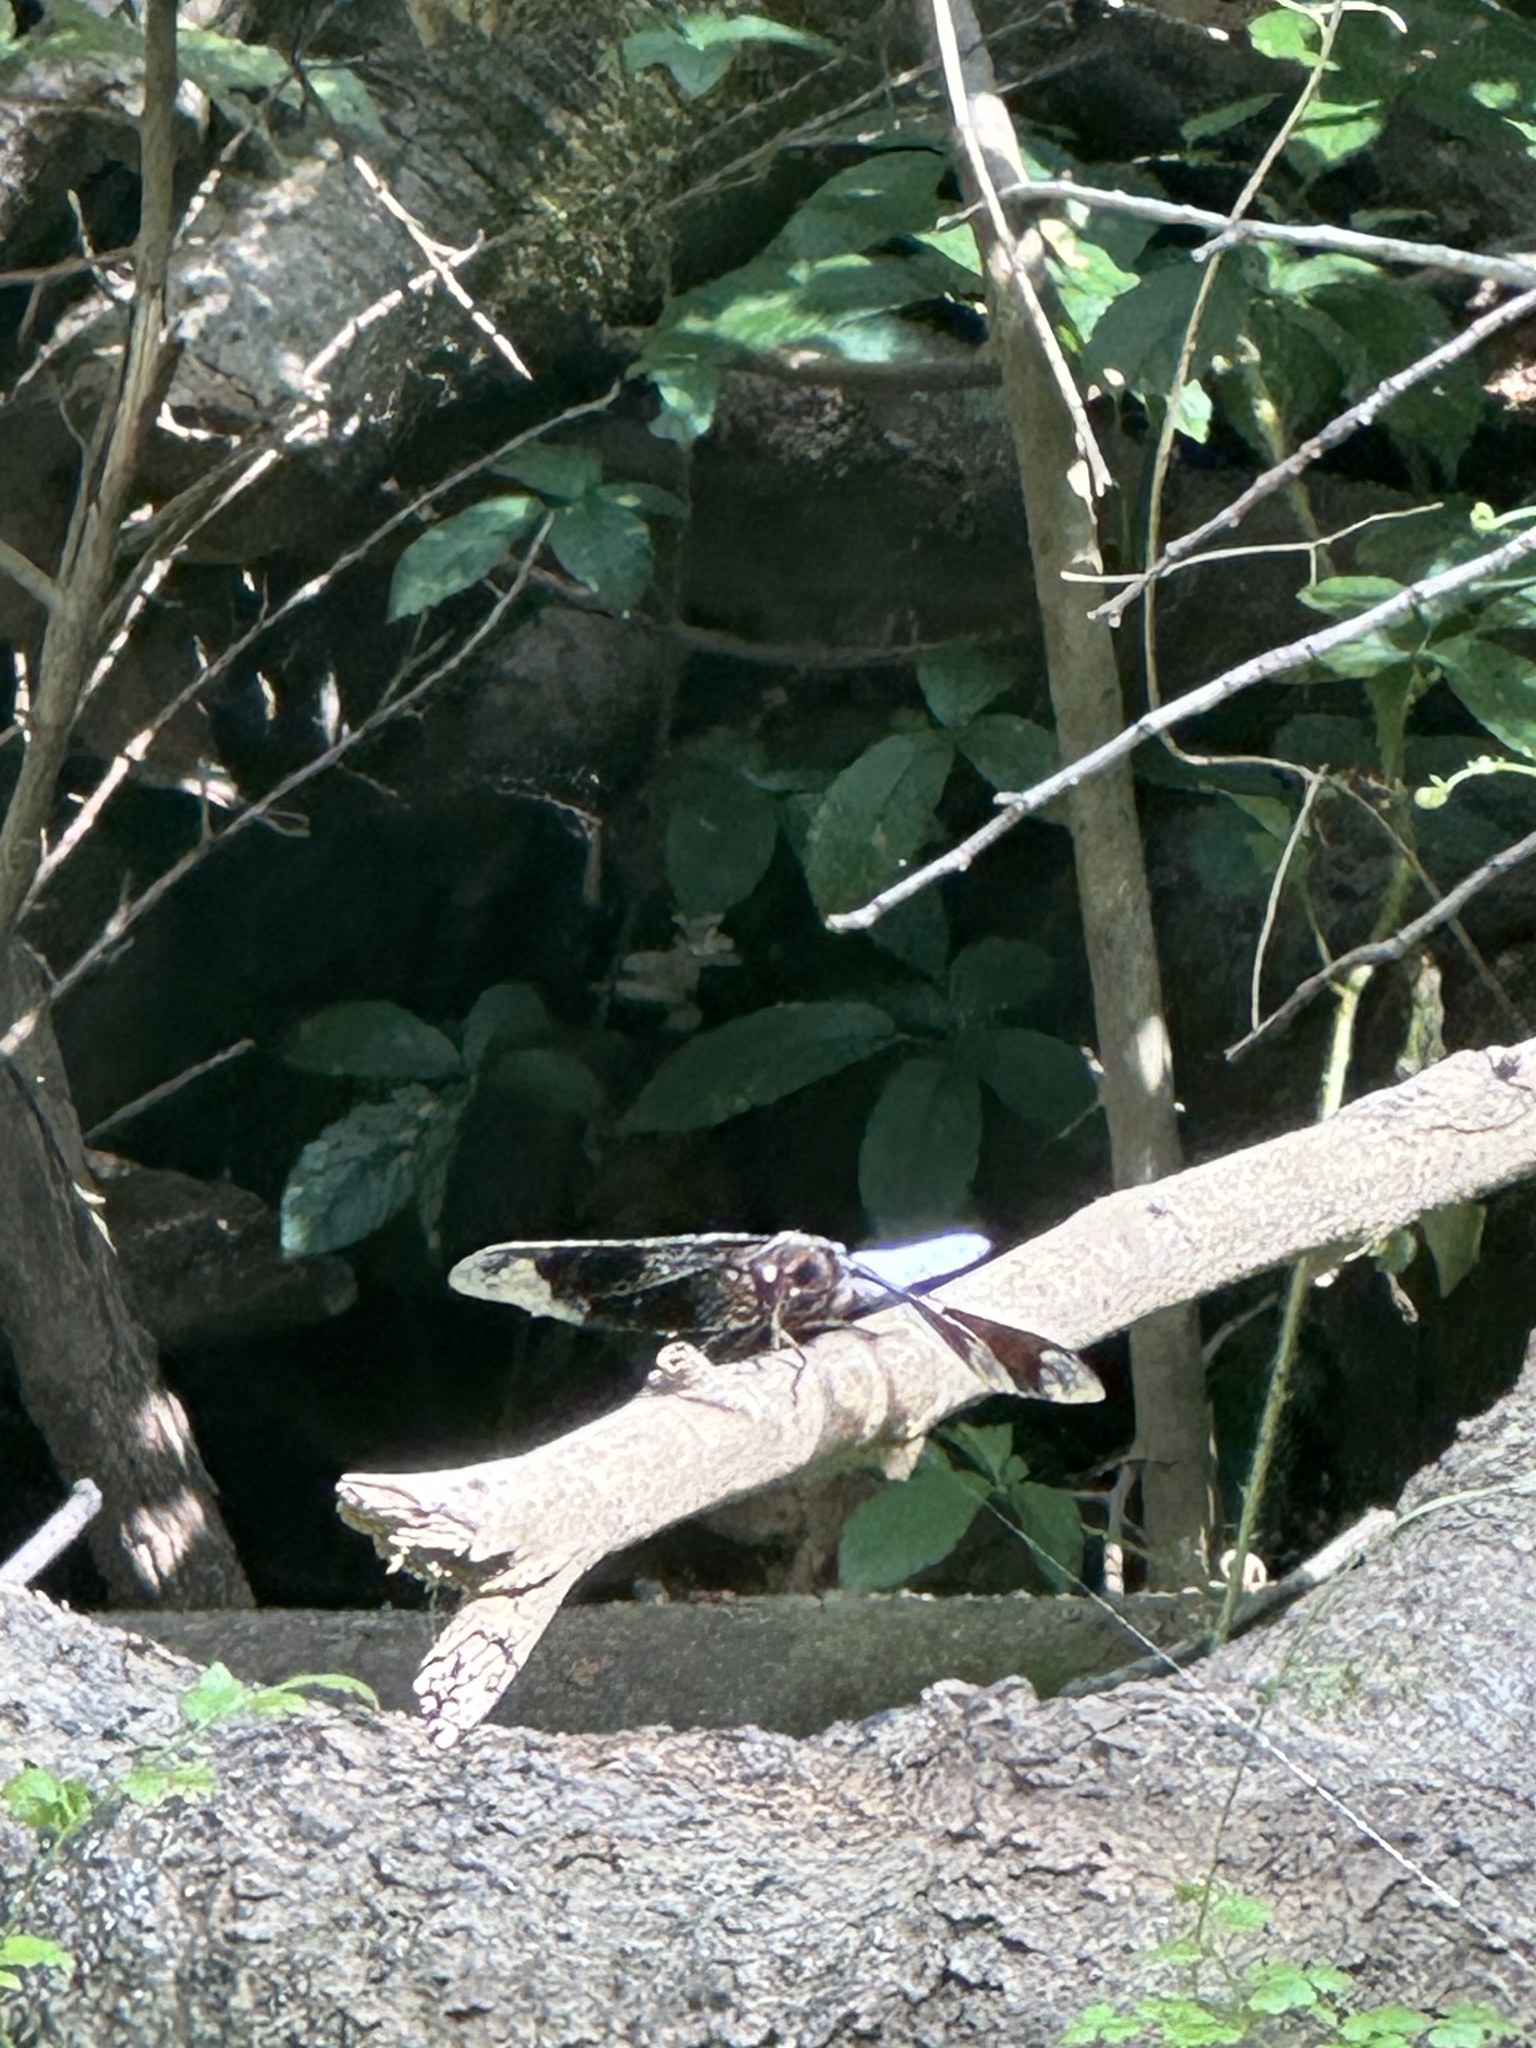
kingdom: Animalia
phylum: Arthropoda
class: Insecta
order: Odonata
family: Libellulidae
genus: Plathemis
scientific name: Plathemis lydia
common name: Common whitetail
